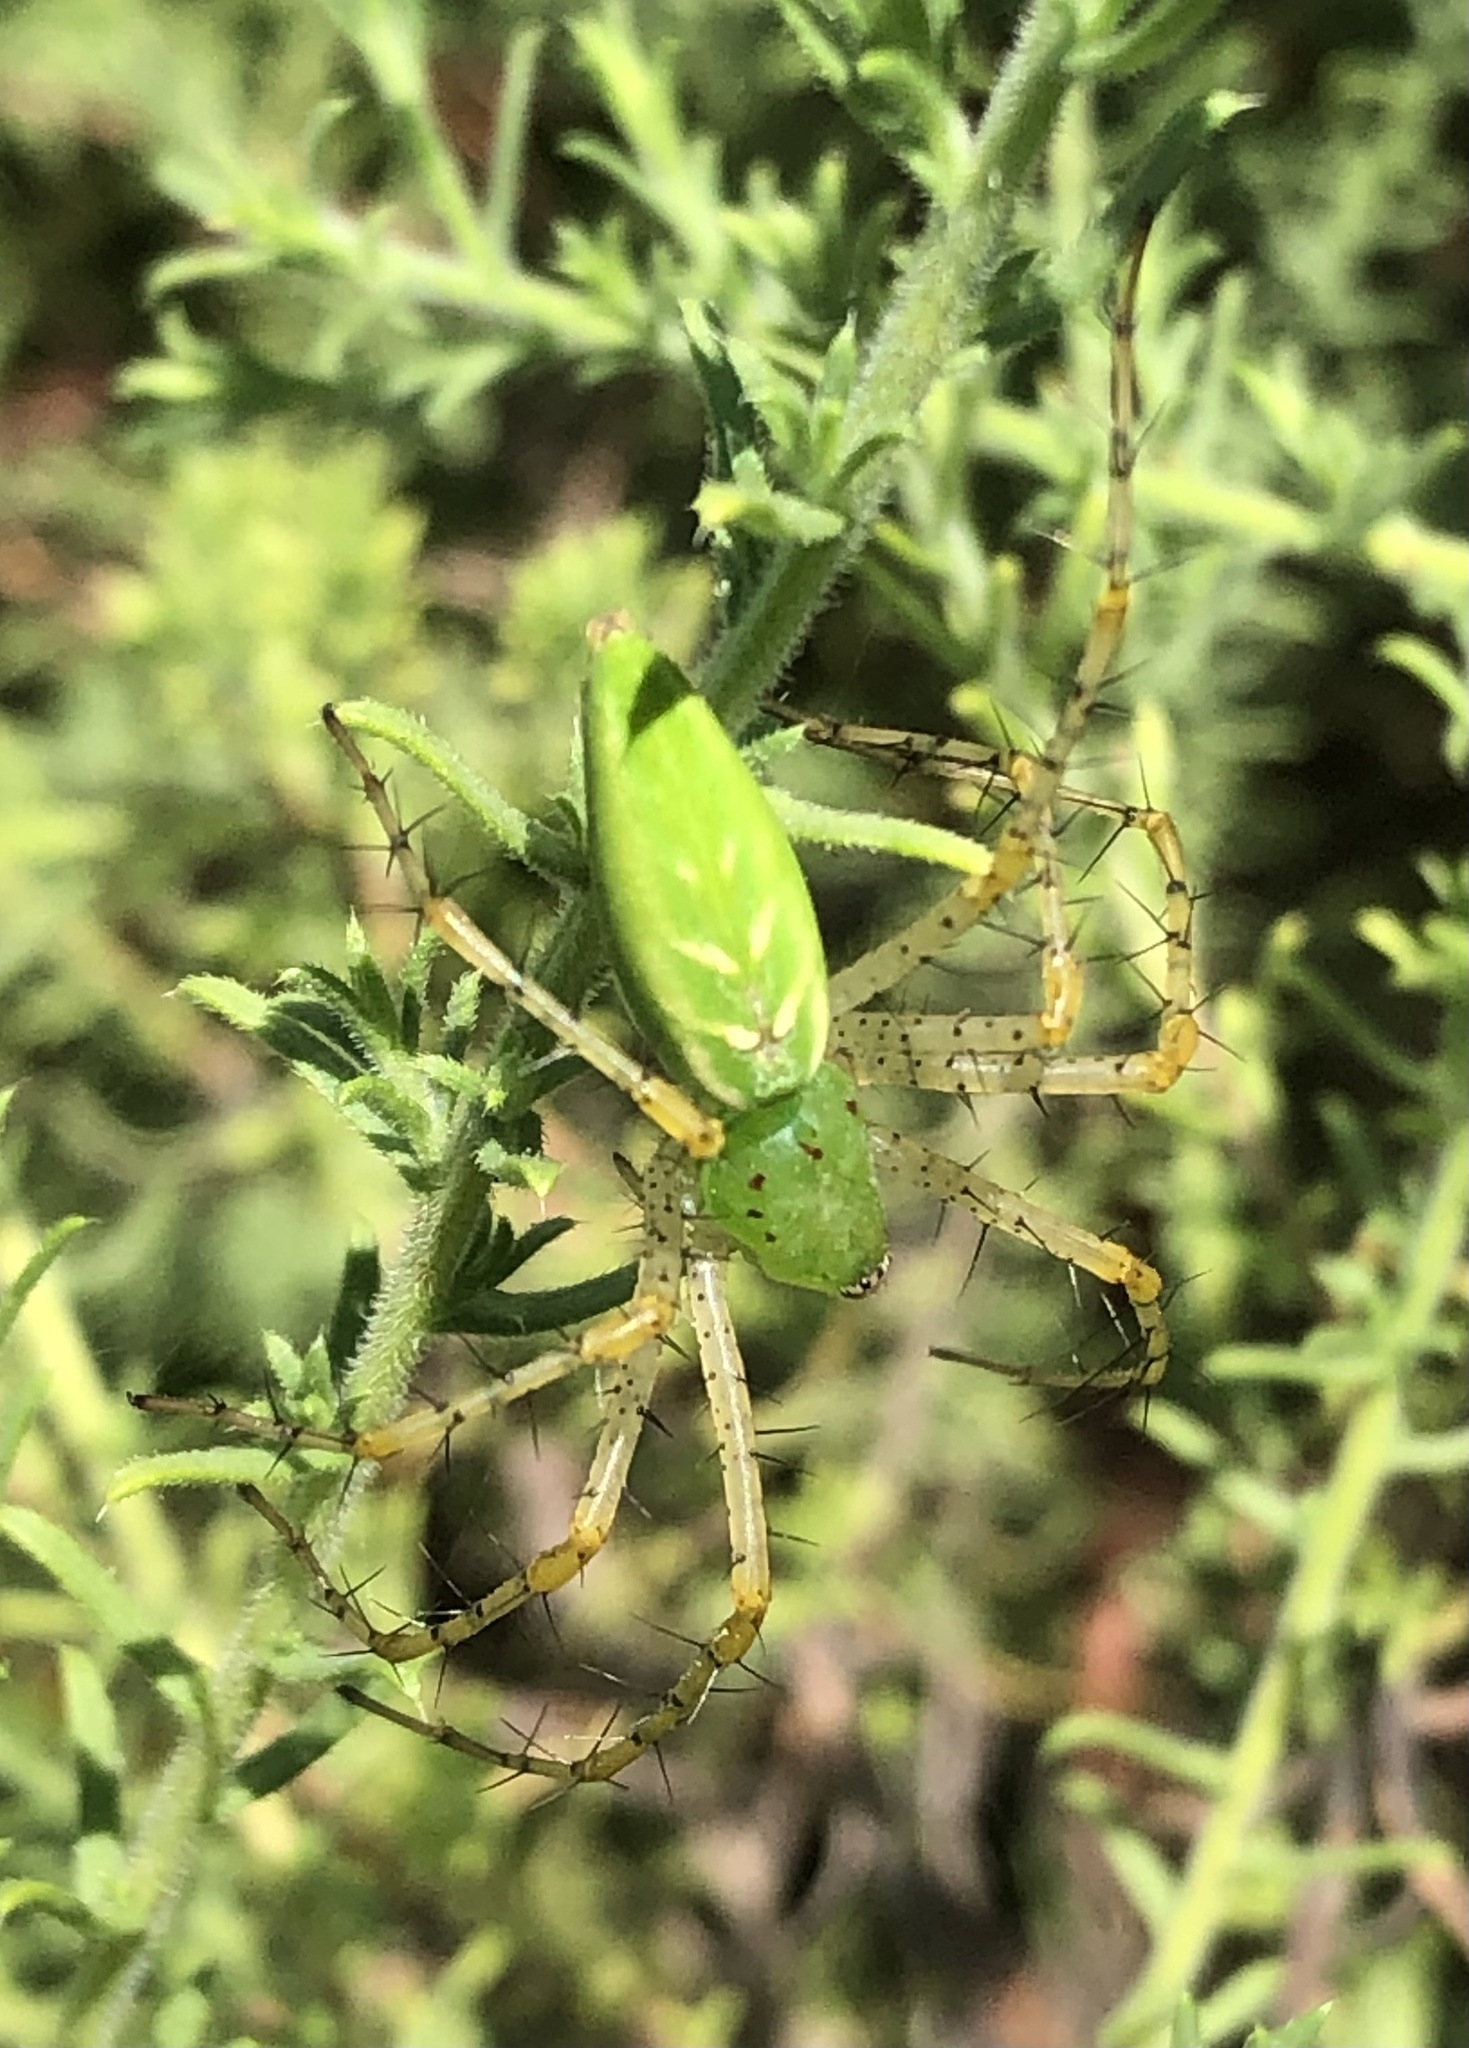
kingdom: Animalia
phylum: Arthropoda
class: Arachnida
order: Araneae
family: Oxyopidae
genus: Peucetia
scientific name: Peucetia viridans
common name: Lynx spiders
